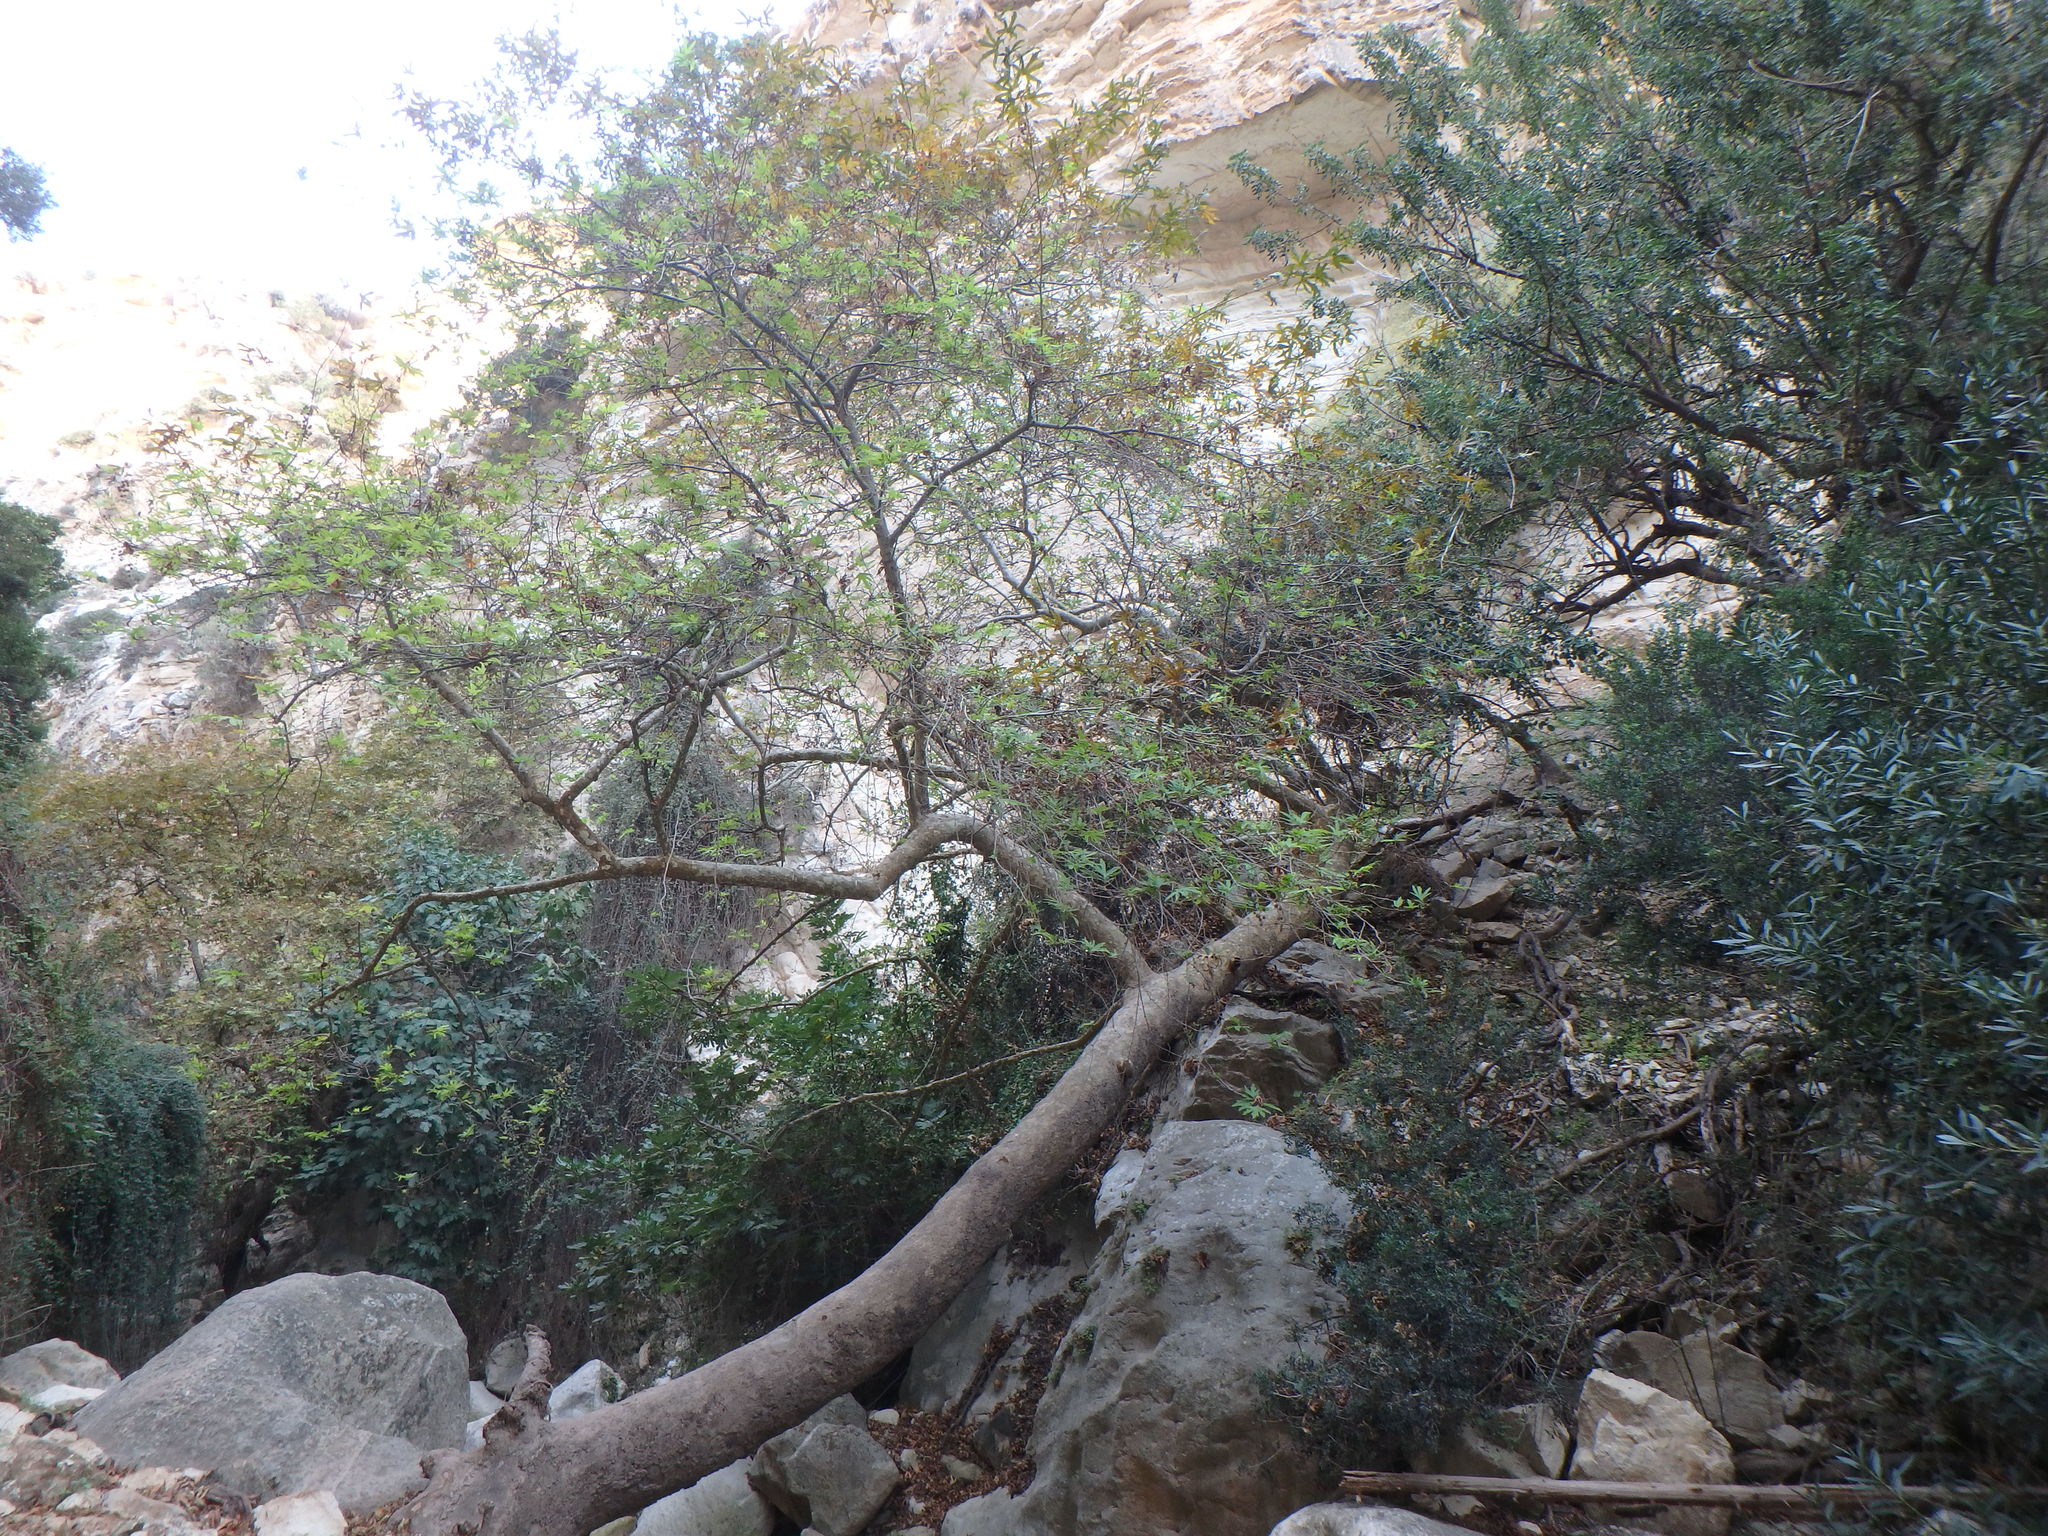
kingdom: Plantae
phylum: Tracheophyta
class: Magnoliopsida
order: Proteales
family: Platanaceae
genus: Platanus
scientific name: Platanus orientalis
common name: Oriental plane
